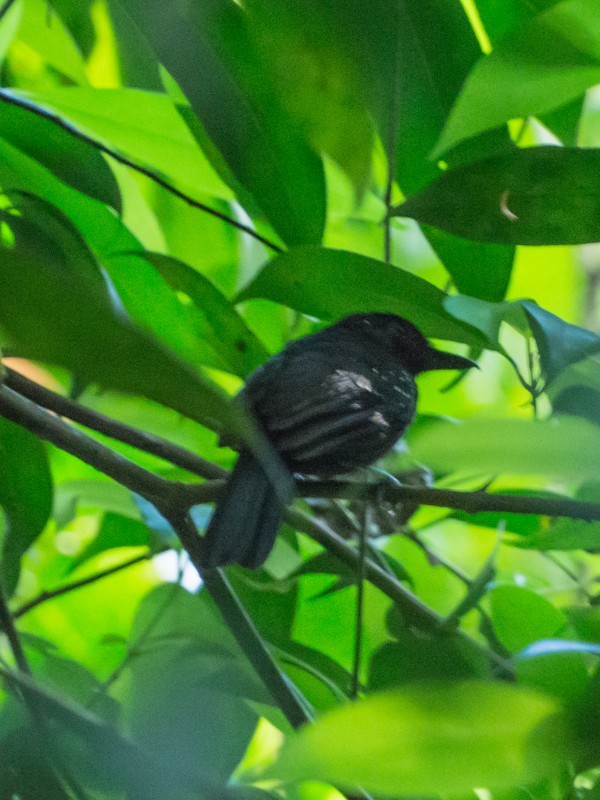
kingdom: Animalia
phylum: Chordata
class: Aves
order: Passeriformes
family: Thamnophilidae
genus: Thamnophilus
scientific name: Thamnophilus bridgesi
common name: Black-hooded antshrike
